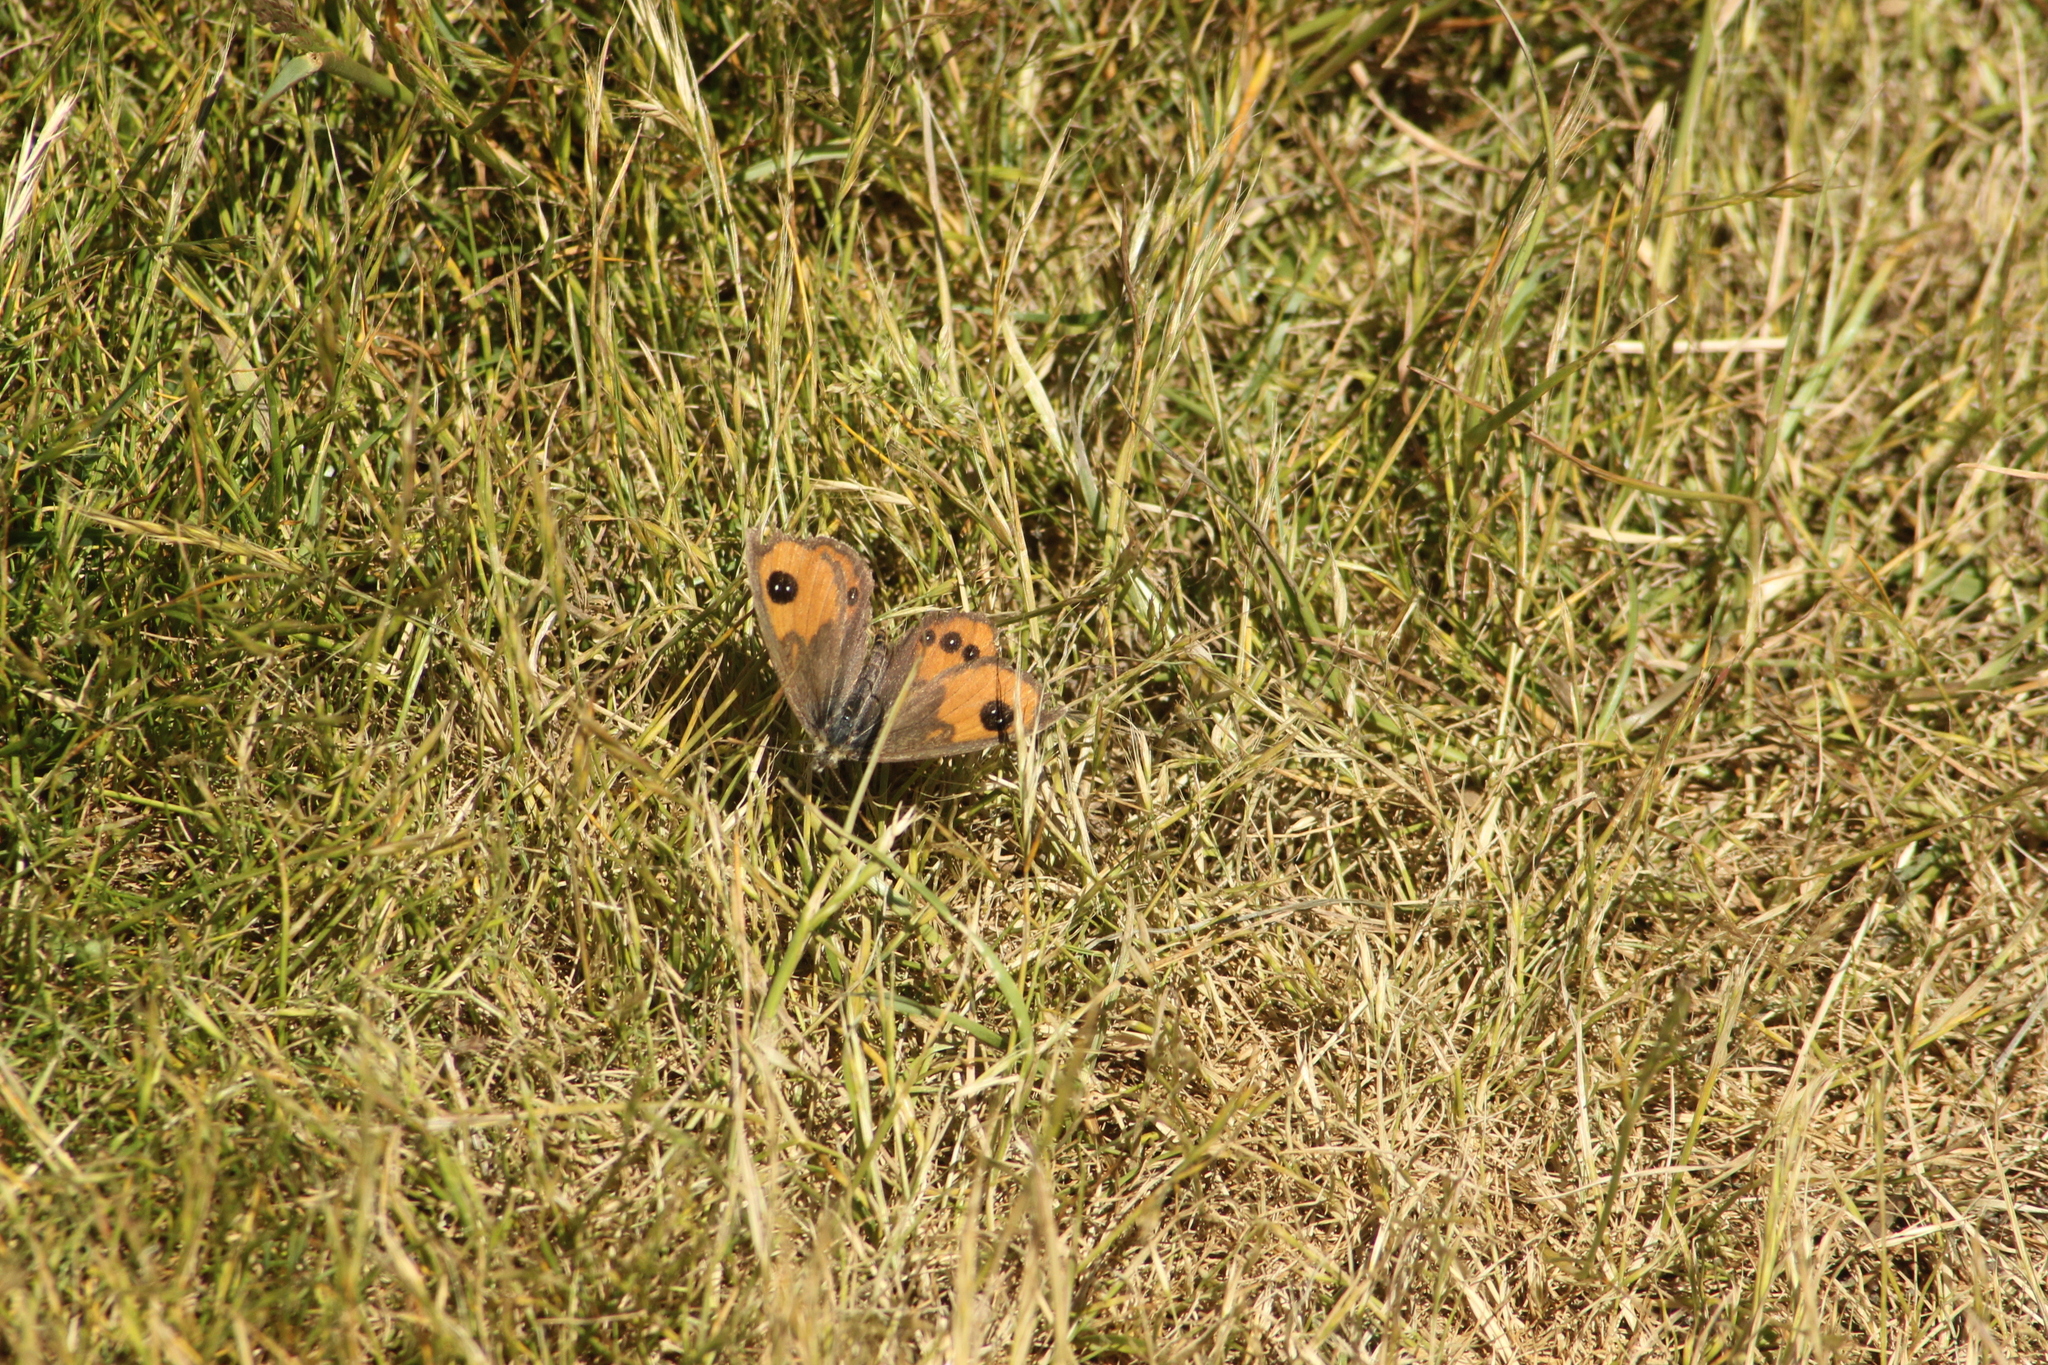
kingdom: Animalia
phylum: Arthropoda
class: Insecta
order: Lepidoptera
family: Nymphalidae
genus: Argyrophenga
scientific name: Argyrophenga antipodum
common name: Common tussock butterfly
